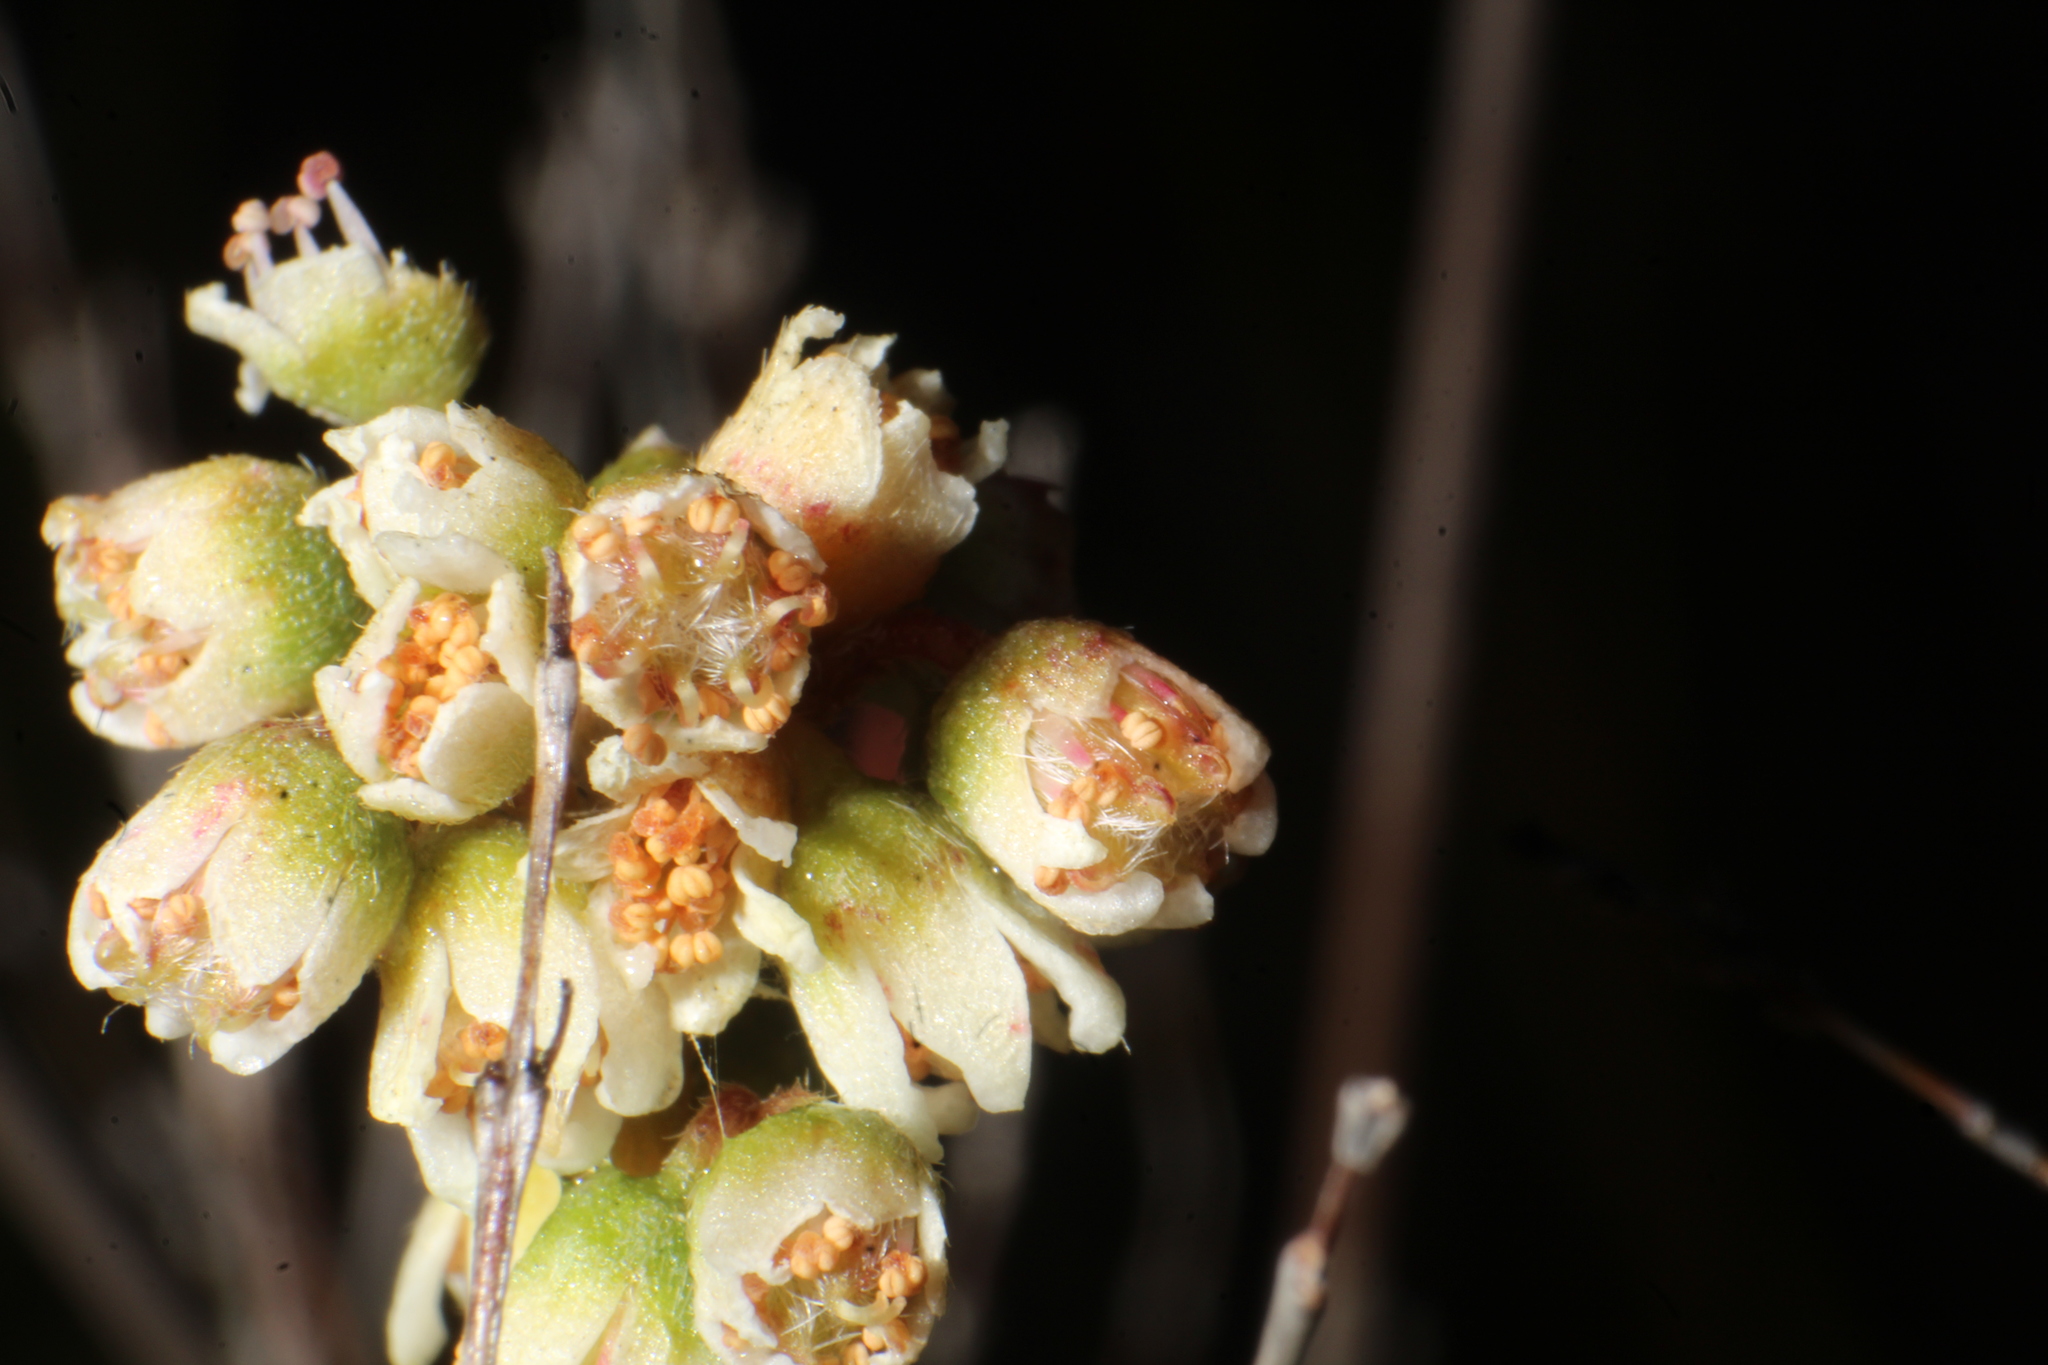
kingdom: Plantae
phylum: Tracheophyta
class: Magnoliopsida
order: Oxalidales
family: Cephalotaceae
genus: Cephalotus
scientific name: Cephalotus follicularis
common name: Australian pitcher plant
